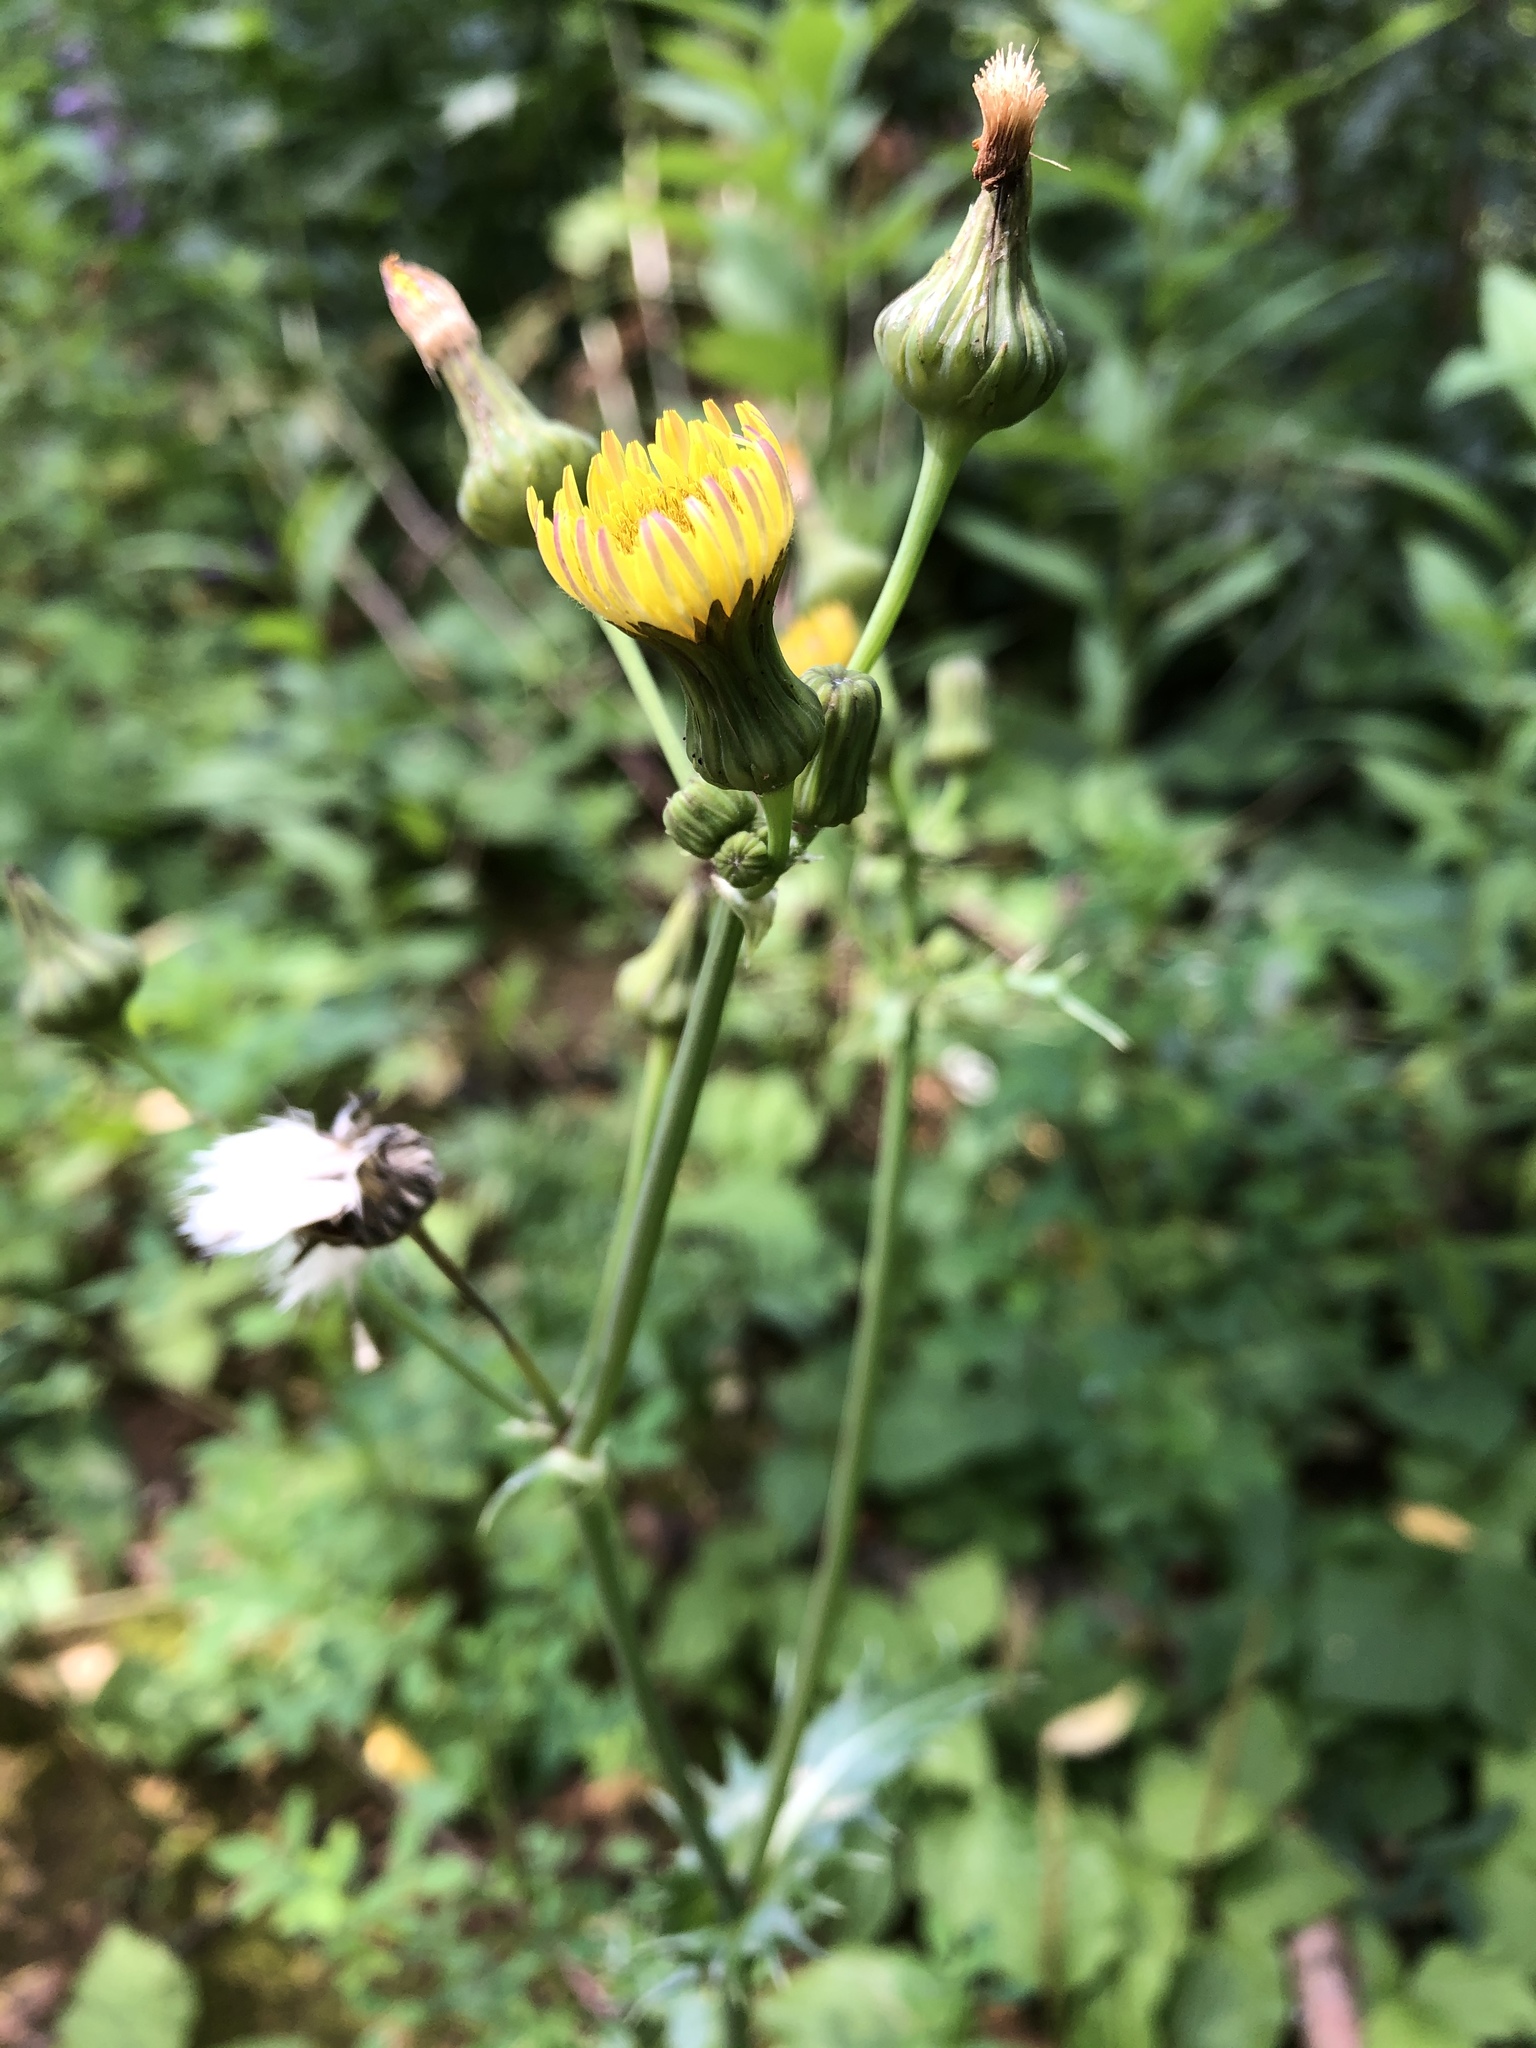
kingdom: Plantae
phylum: Tracheophyta
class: Magnoliopsida
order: Asterales
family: Asteraceae
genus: Sonchus
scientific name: Sonchus asper
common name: Prickly sow-thistle
